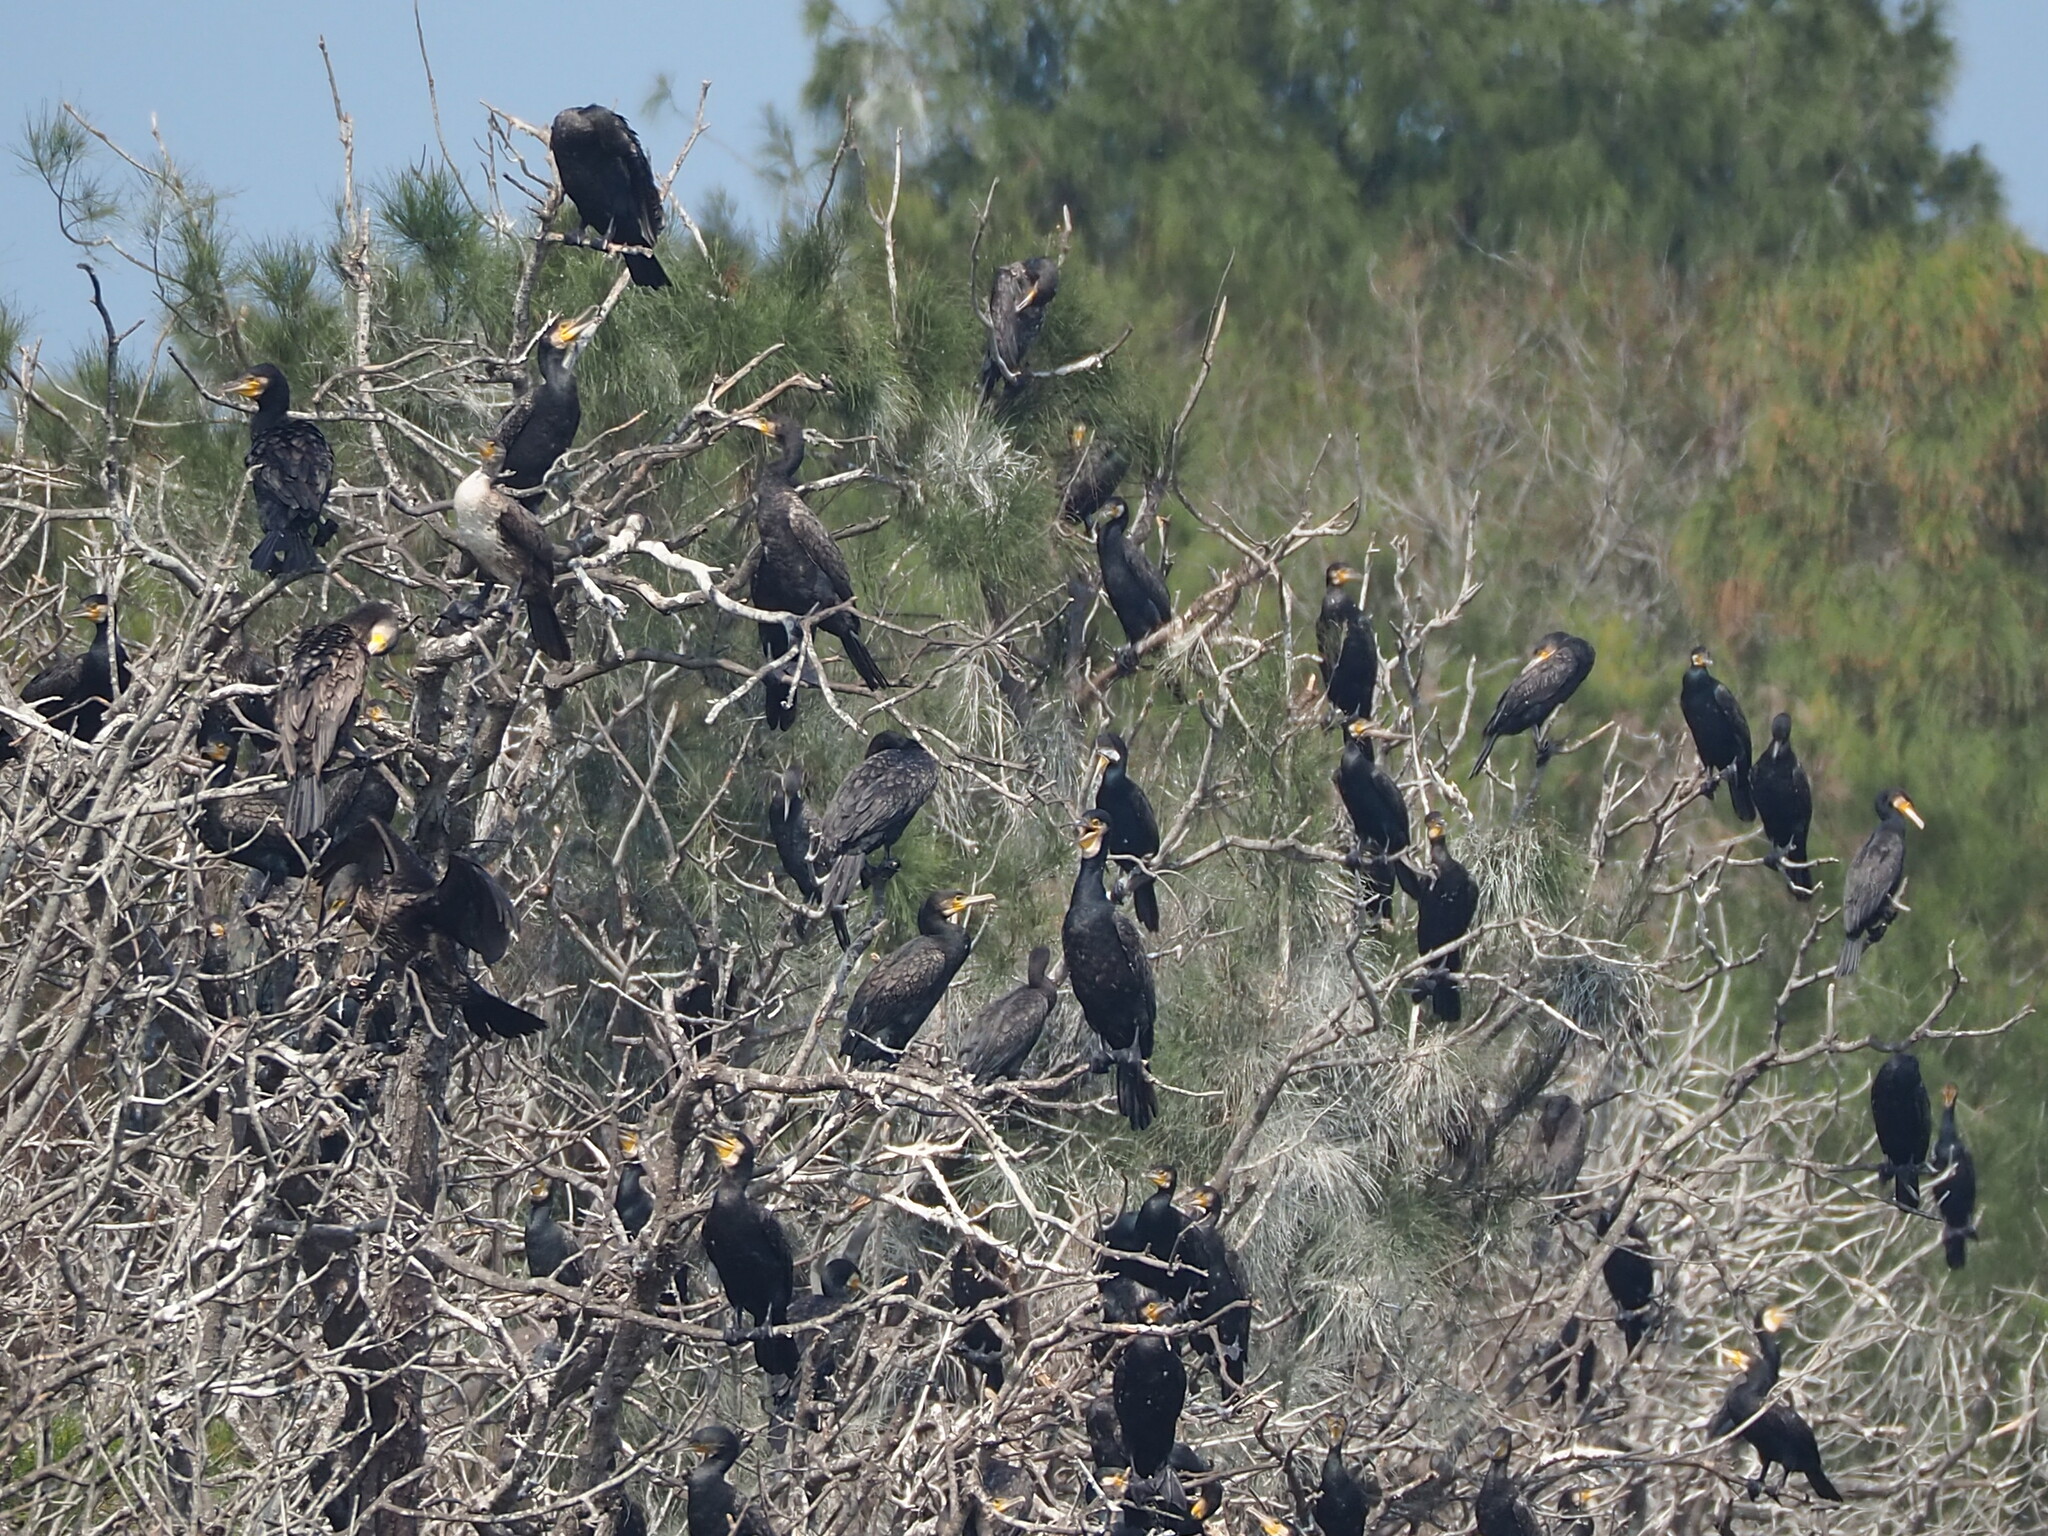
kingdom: Animalia
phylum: Chordata
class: Aves
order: Suliformes
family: Phalacrocoracidae
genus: Phalacrocorax
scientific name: Phalacrocorax carbo
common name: Great cormorant
